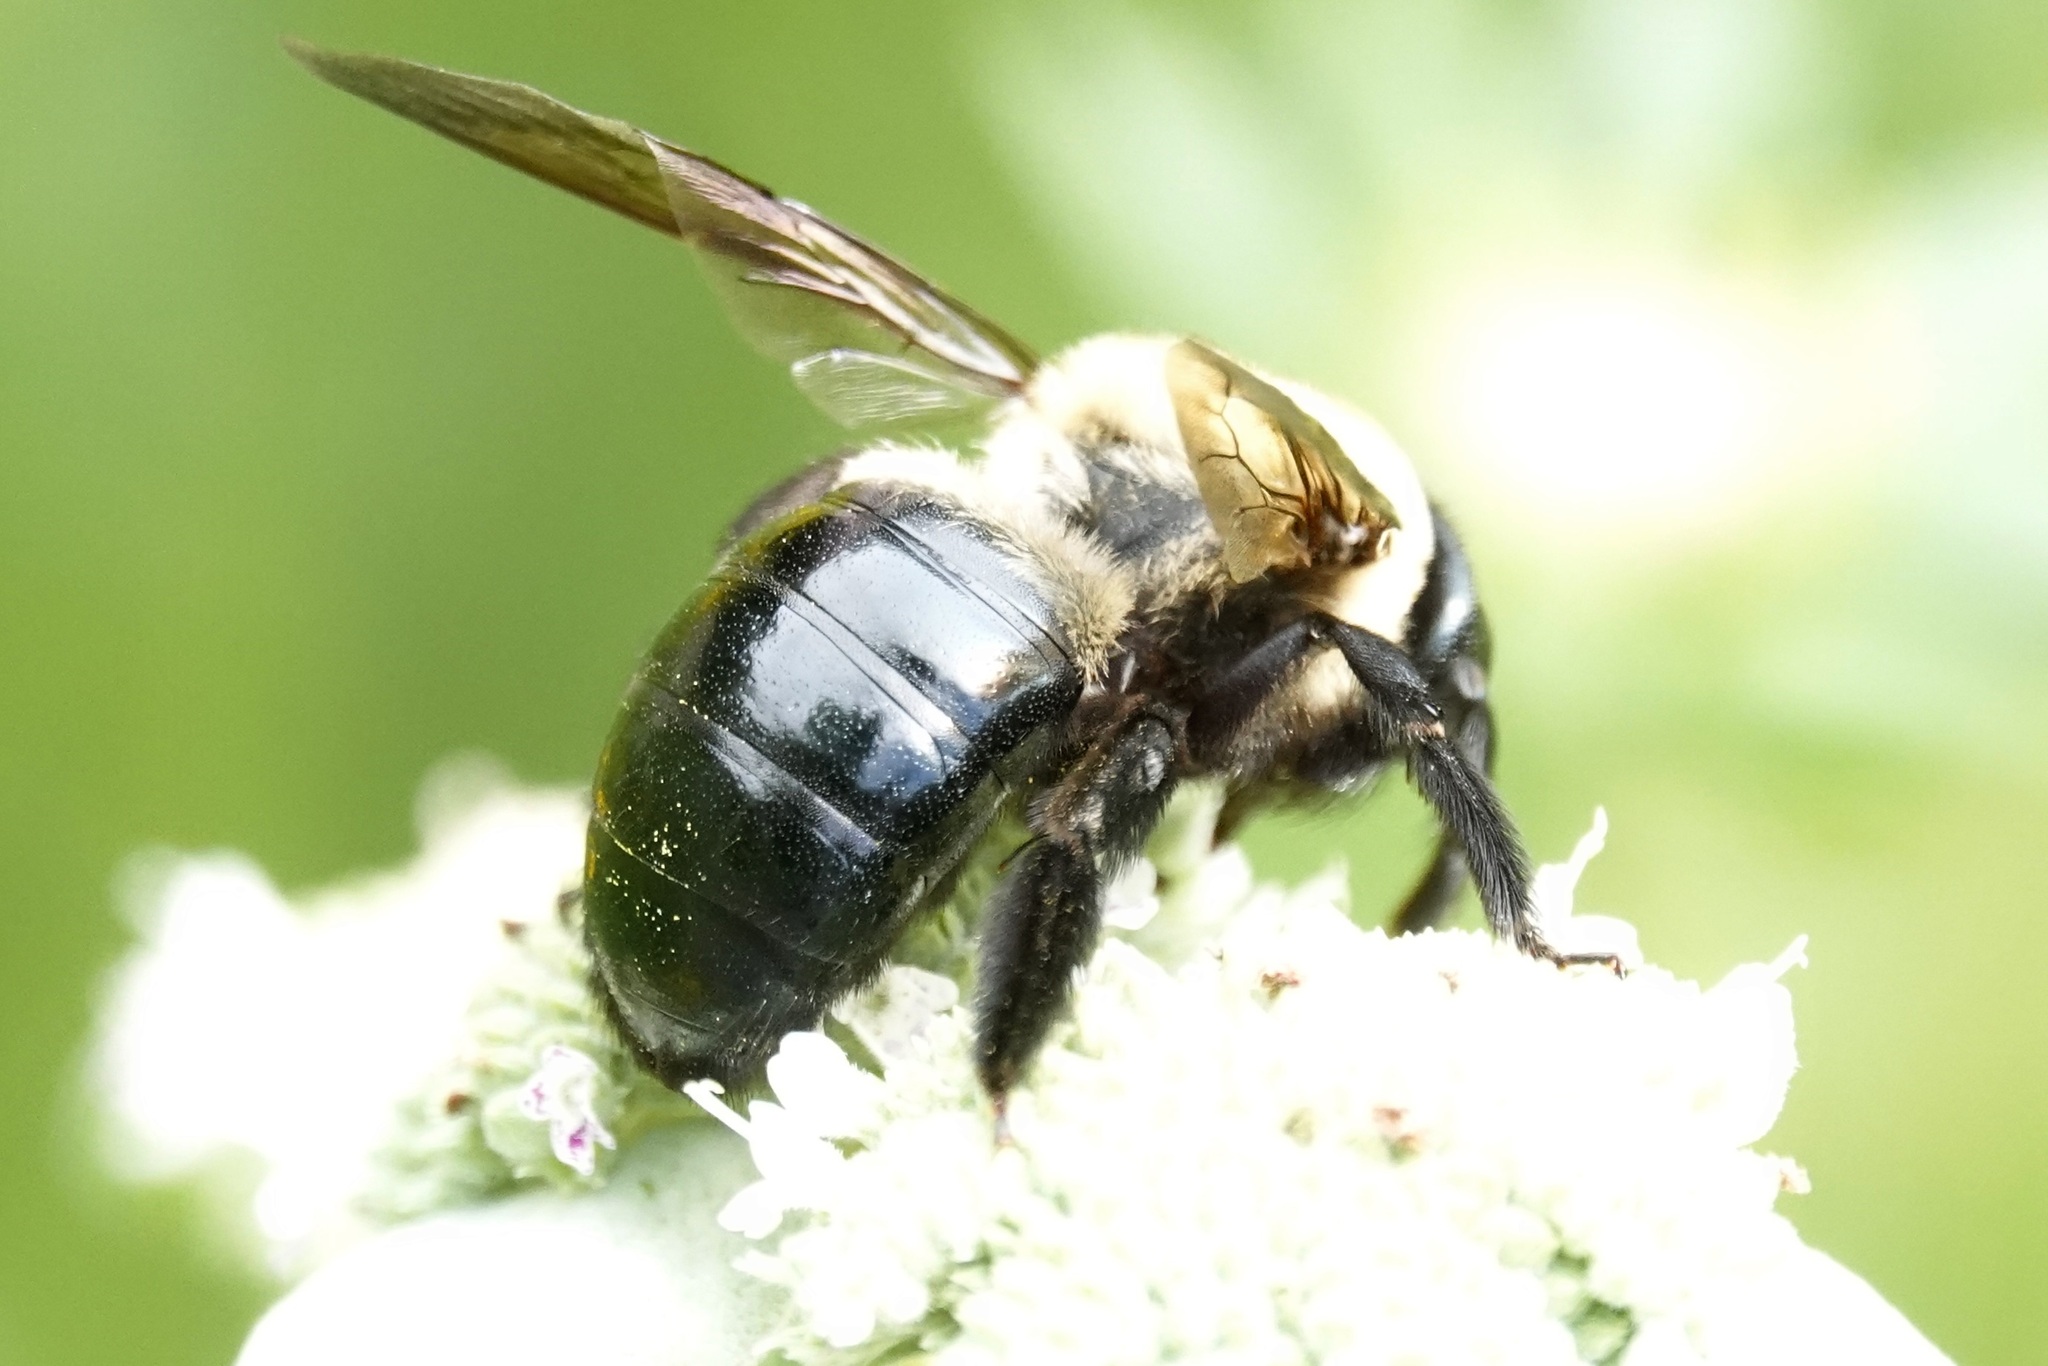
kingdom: Animalia
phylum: Arthropoda
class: Insecta
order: Hymenoptera
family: Apidae
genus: Xylocopa
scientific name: Xylocopa virginica
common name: Carpenter bee
